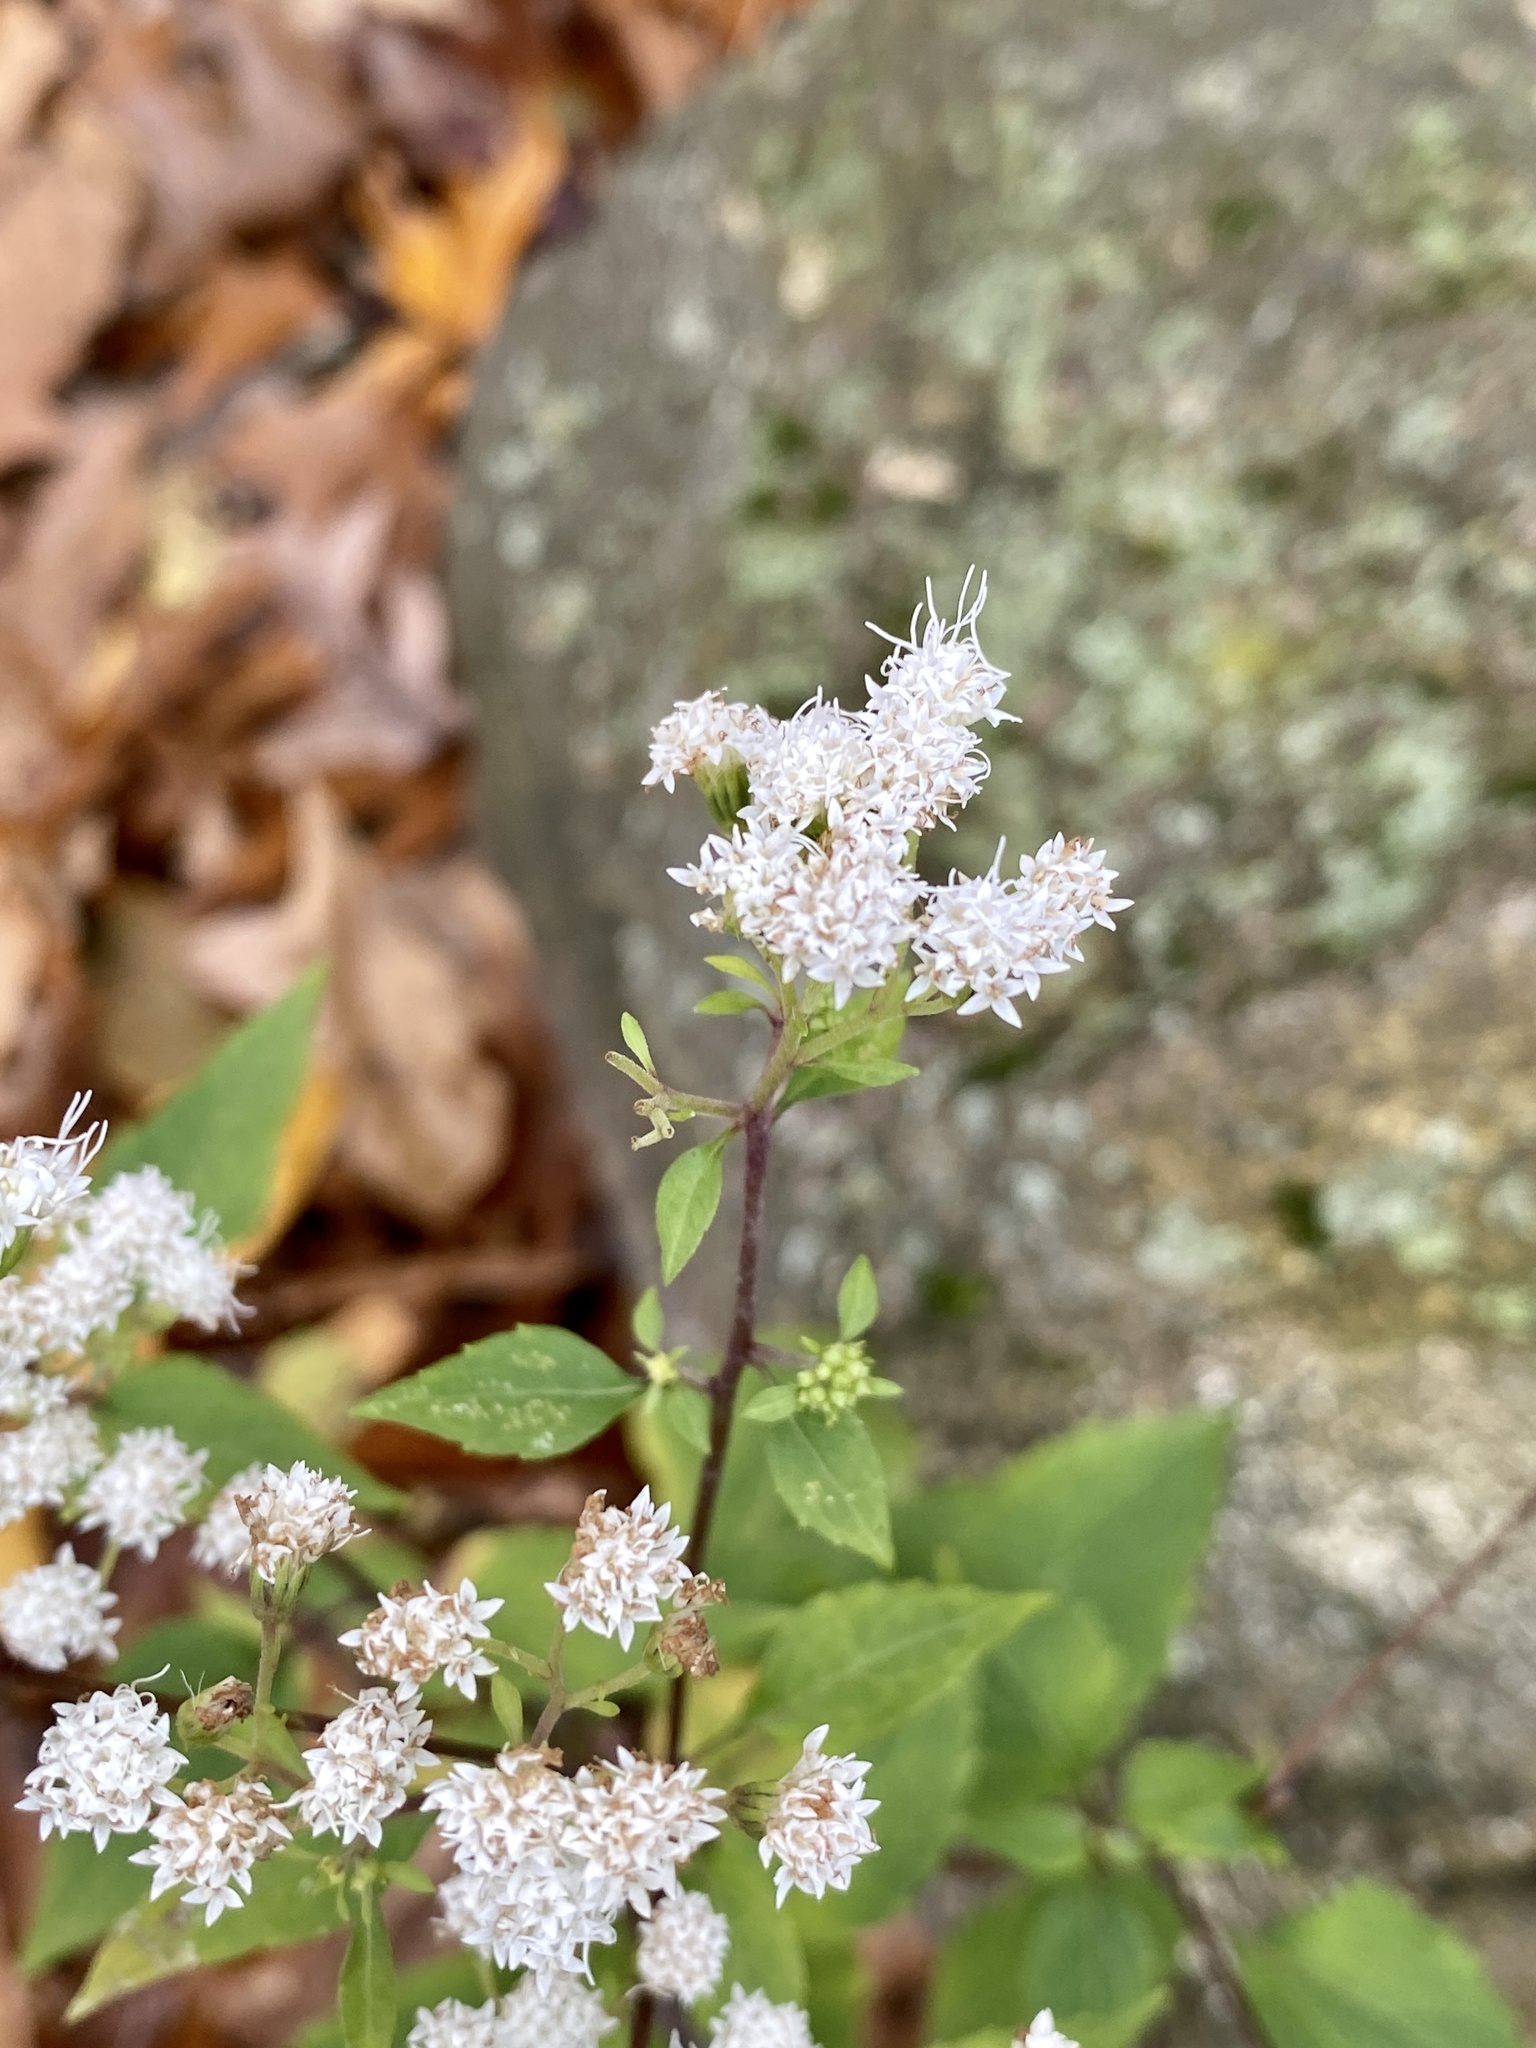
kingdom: Plantae
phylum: Tracheophyta
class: Magnoliopsida
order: Asterales
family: Asteraceae
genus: Ageratina
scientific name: Ageratina altissima
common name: White snakeroot
